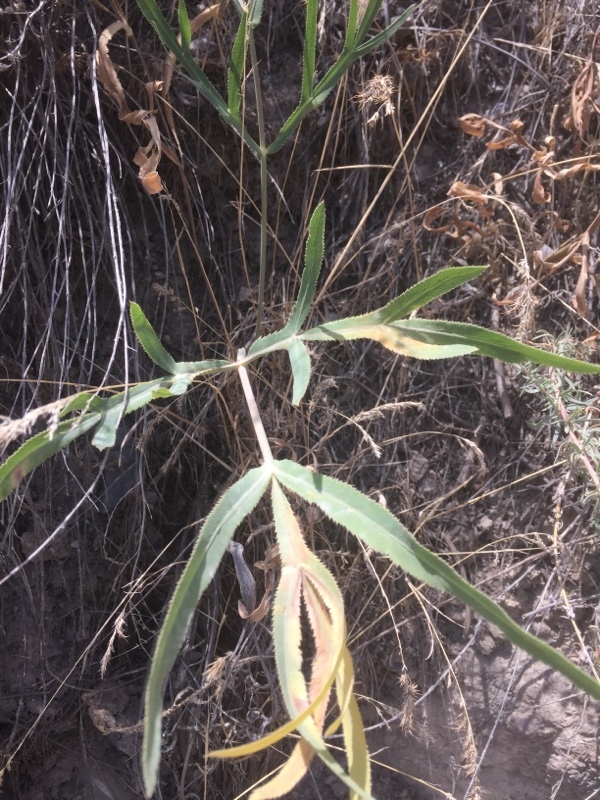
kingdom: Plantae
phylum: Tracheophyta
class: Magnoliopsida
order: Apiales
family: Apiaceae
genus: Falcaria
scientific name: Falcaria vulgaris
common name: Longleaf
